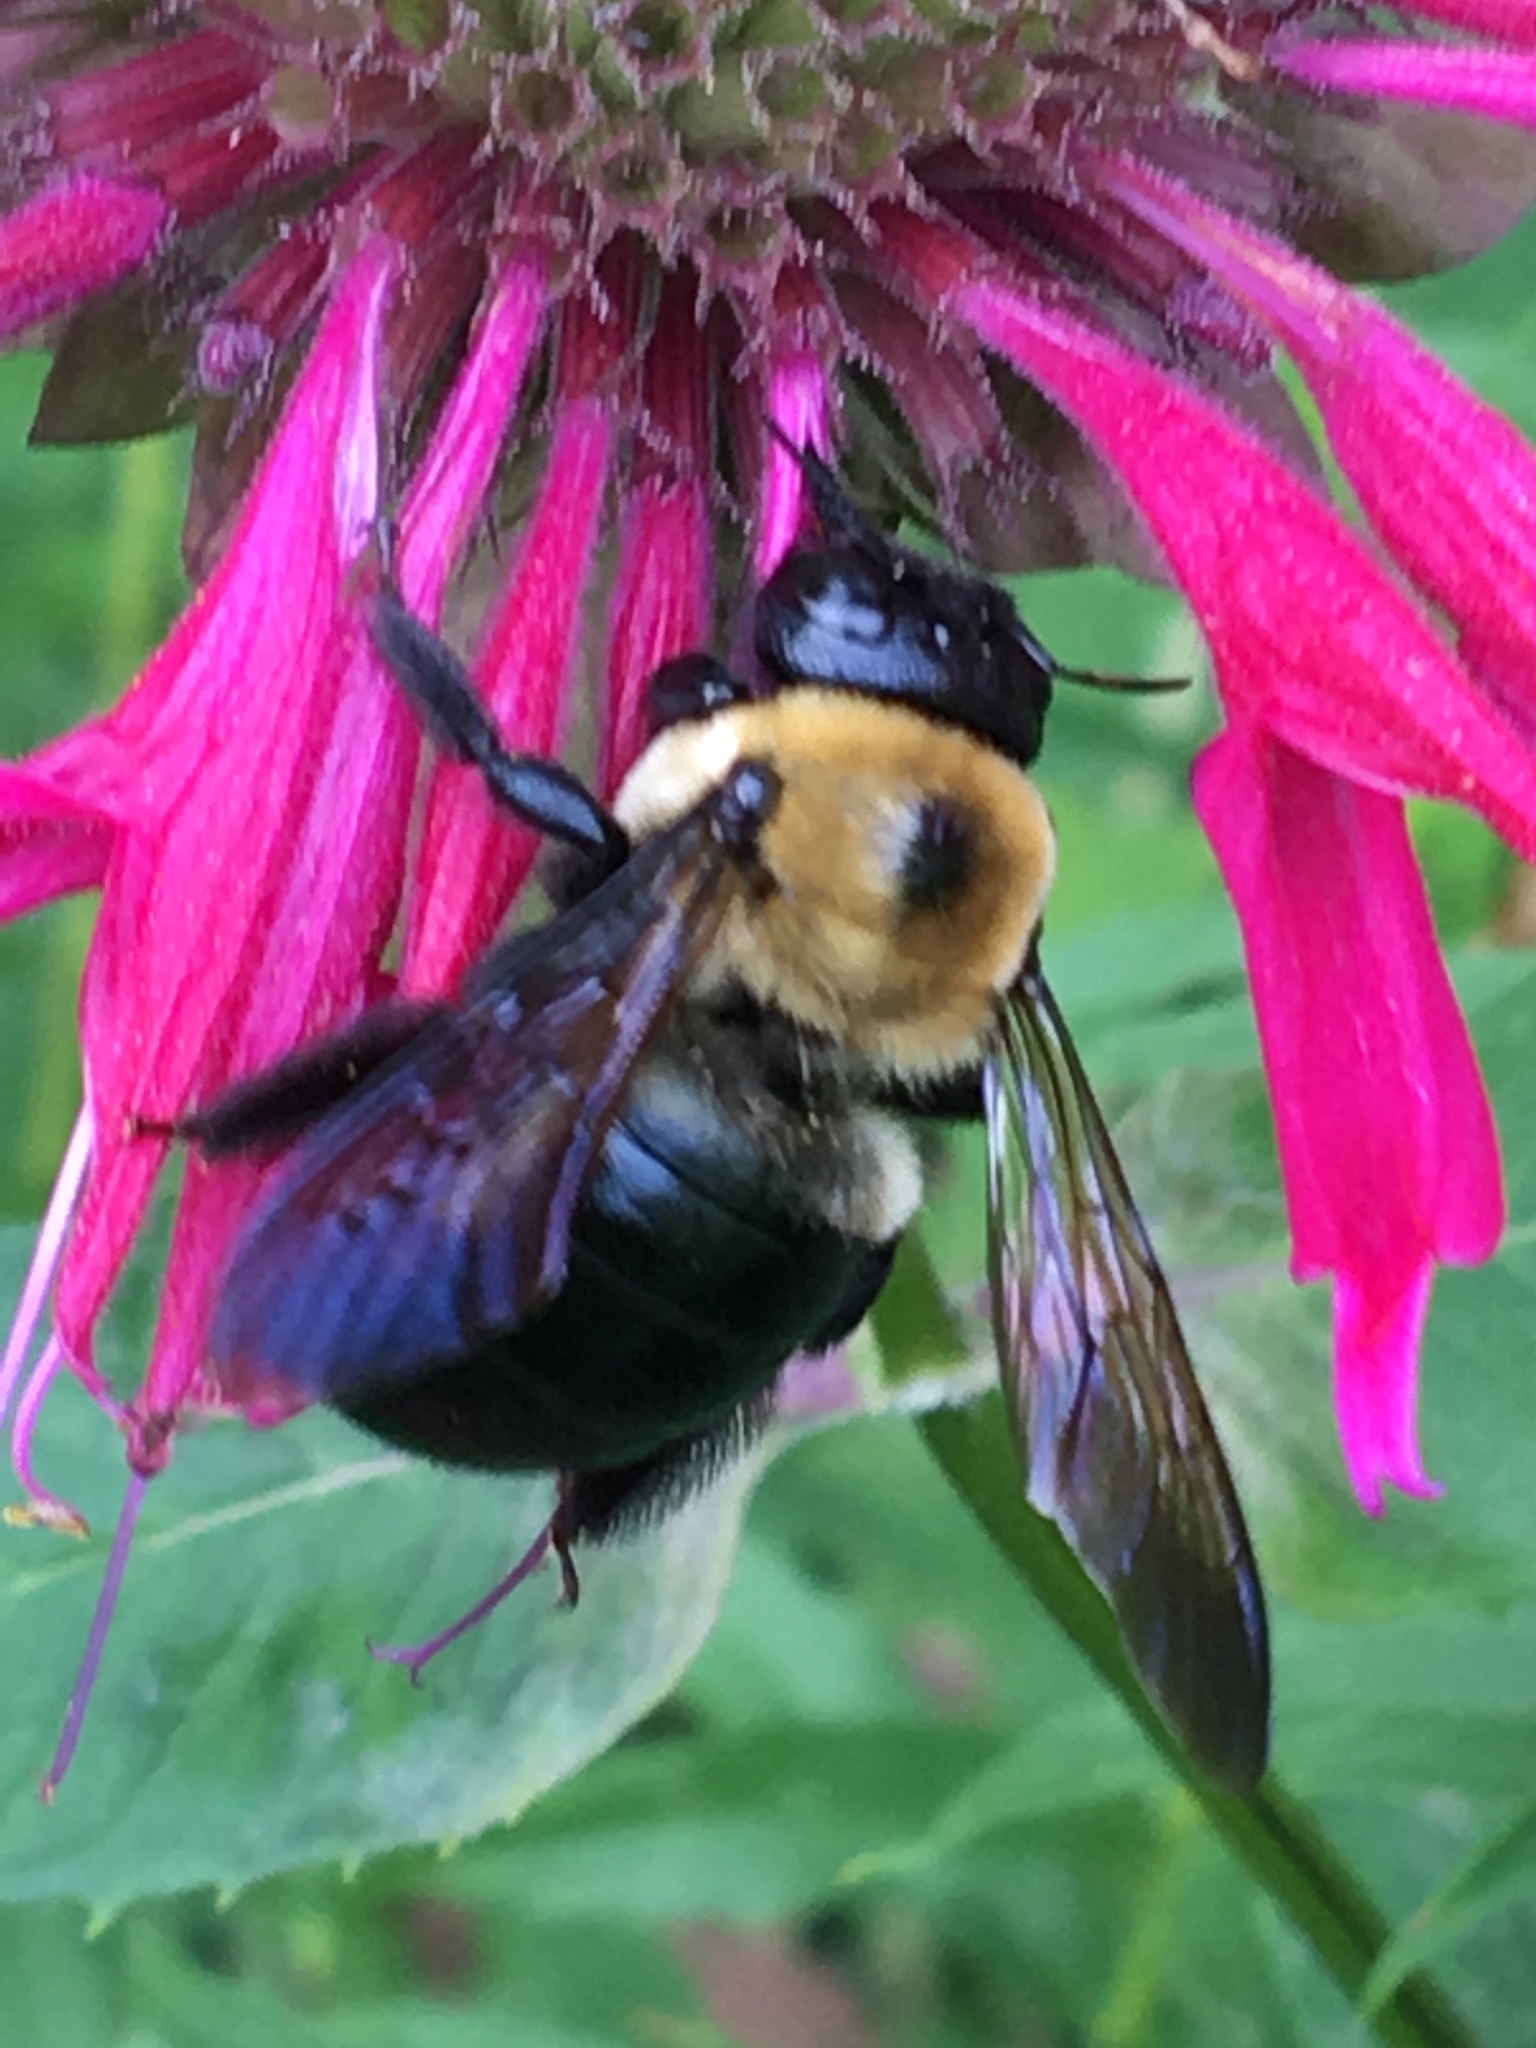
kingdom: Animalia
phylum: Arthropoda
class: Insecta
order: Hymenoptera
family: Apidae
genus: Xylocopa
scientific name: Xylocopa virginica
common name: Carpenter bee
